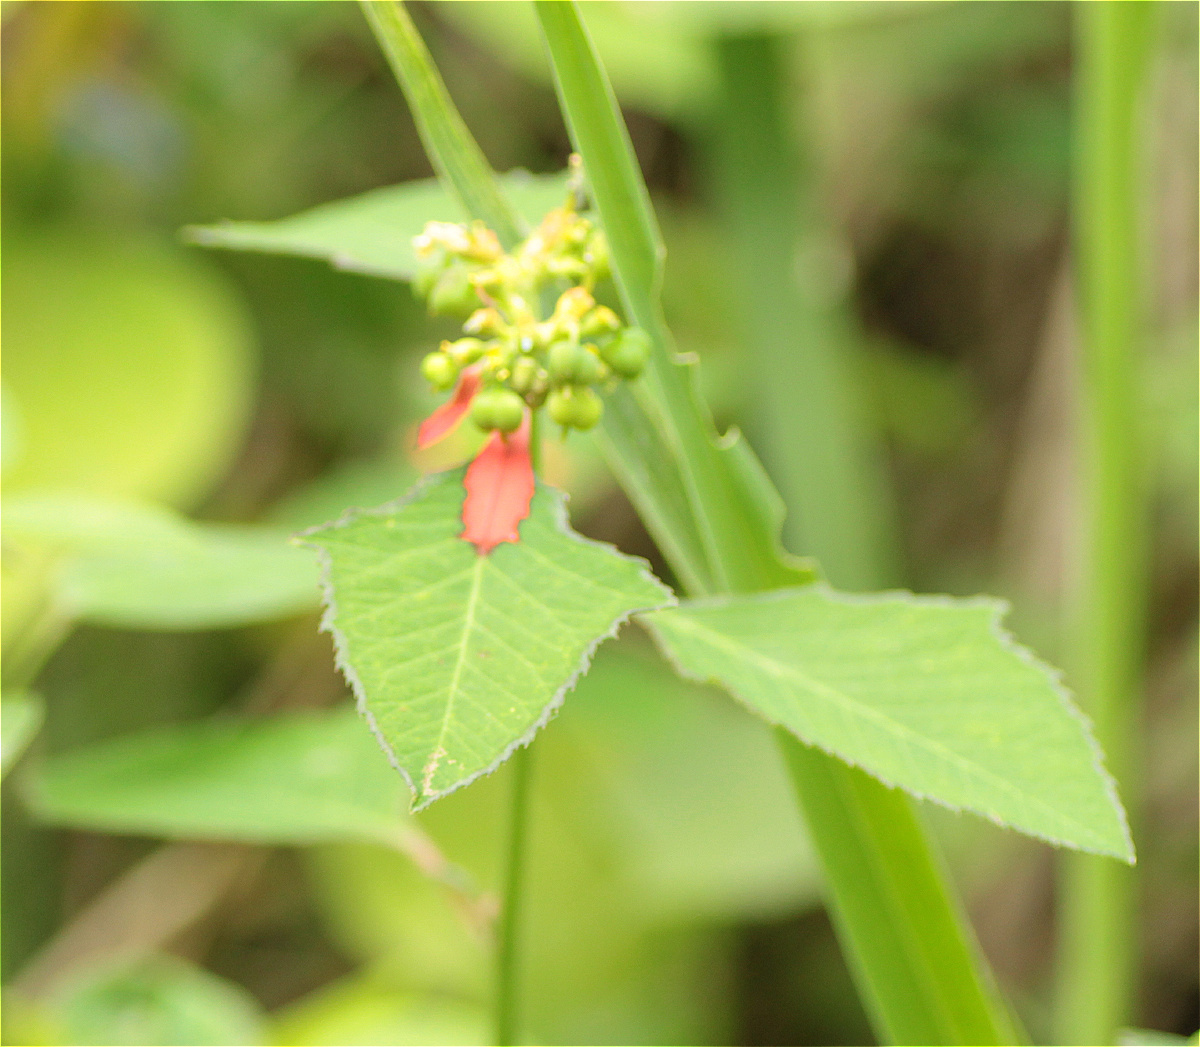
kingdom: Plantae
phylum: Tracheophyta
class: Magnoliopsida
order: Malpighiales
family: Euphorbiaceae
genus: Euphorbia
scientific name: Euphorbia heterophylla
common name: Mexican fireplant
